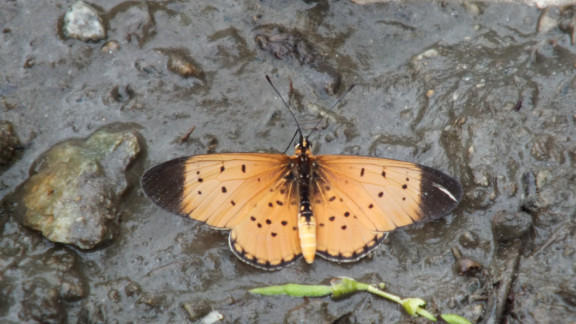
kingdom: Animalia
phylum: Arthropoda
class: Insecta
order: Lepidoptera
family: Nymphalidae
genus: Stephenia
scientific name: Stephenia
